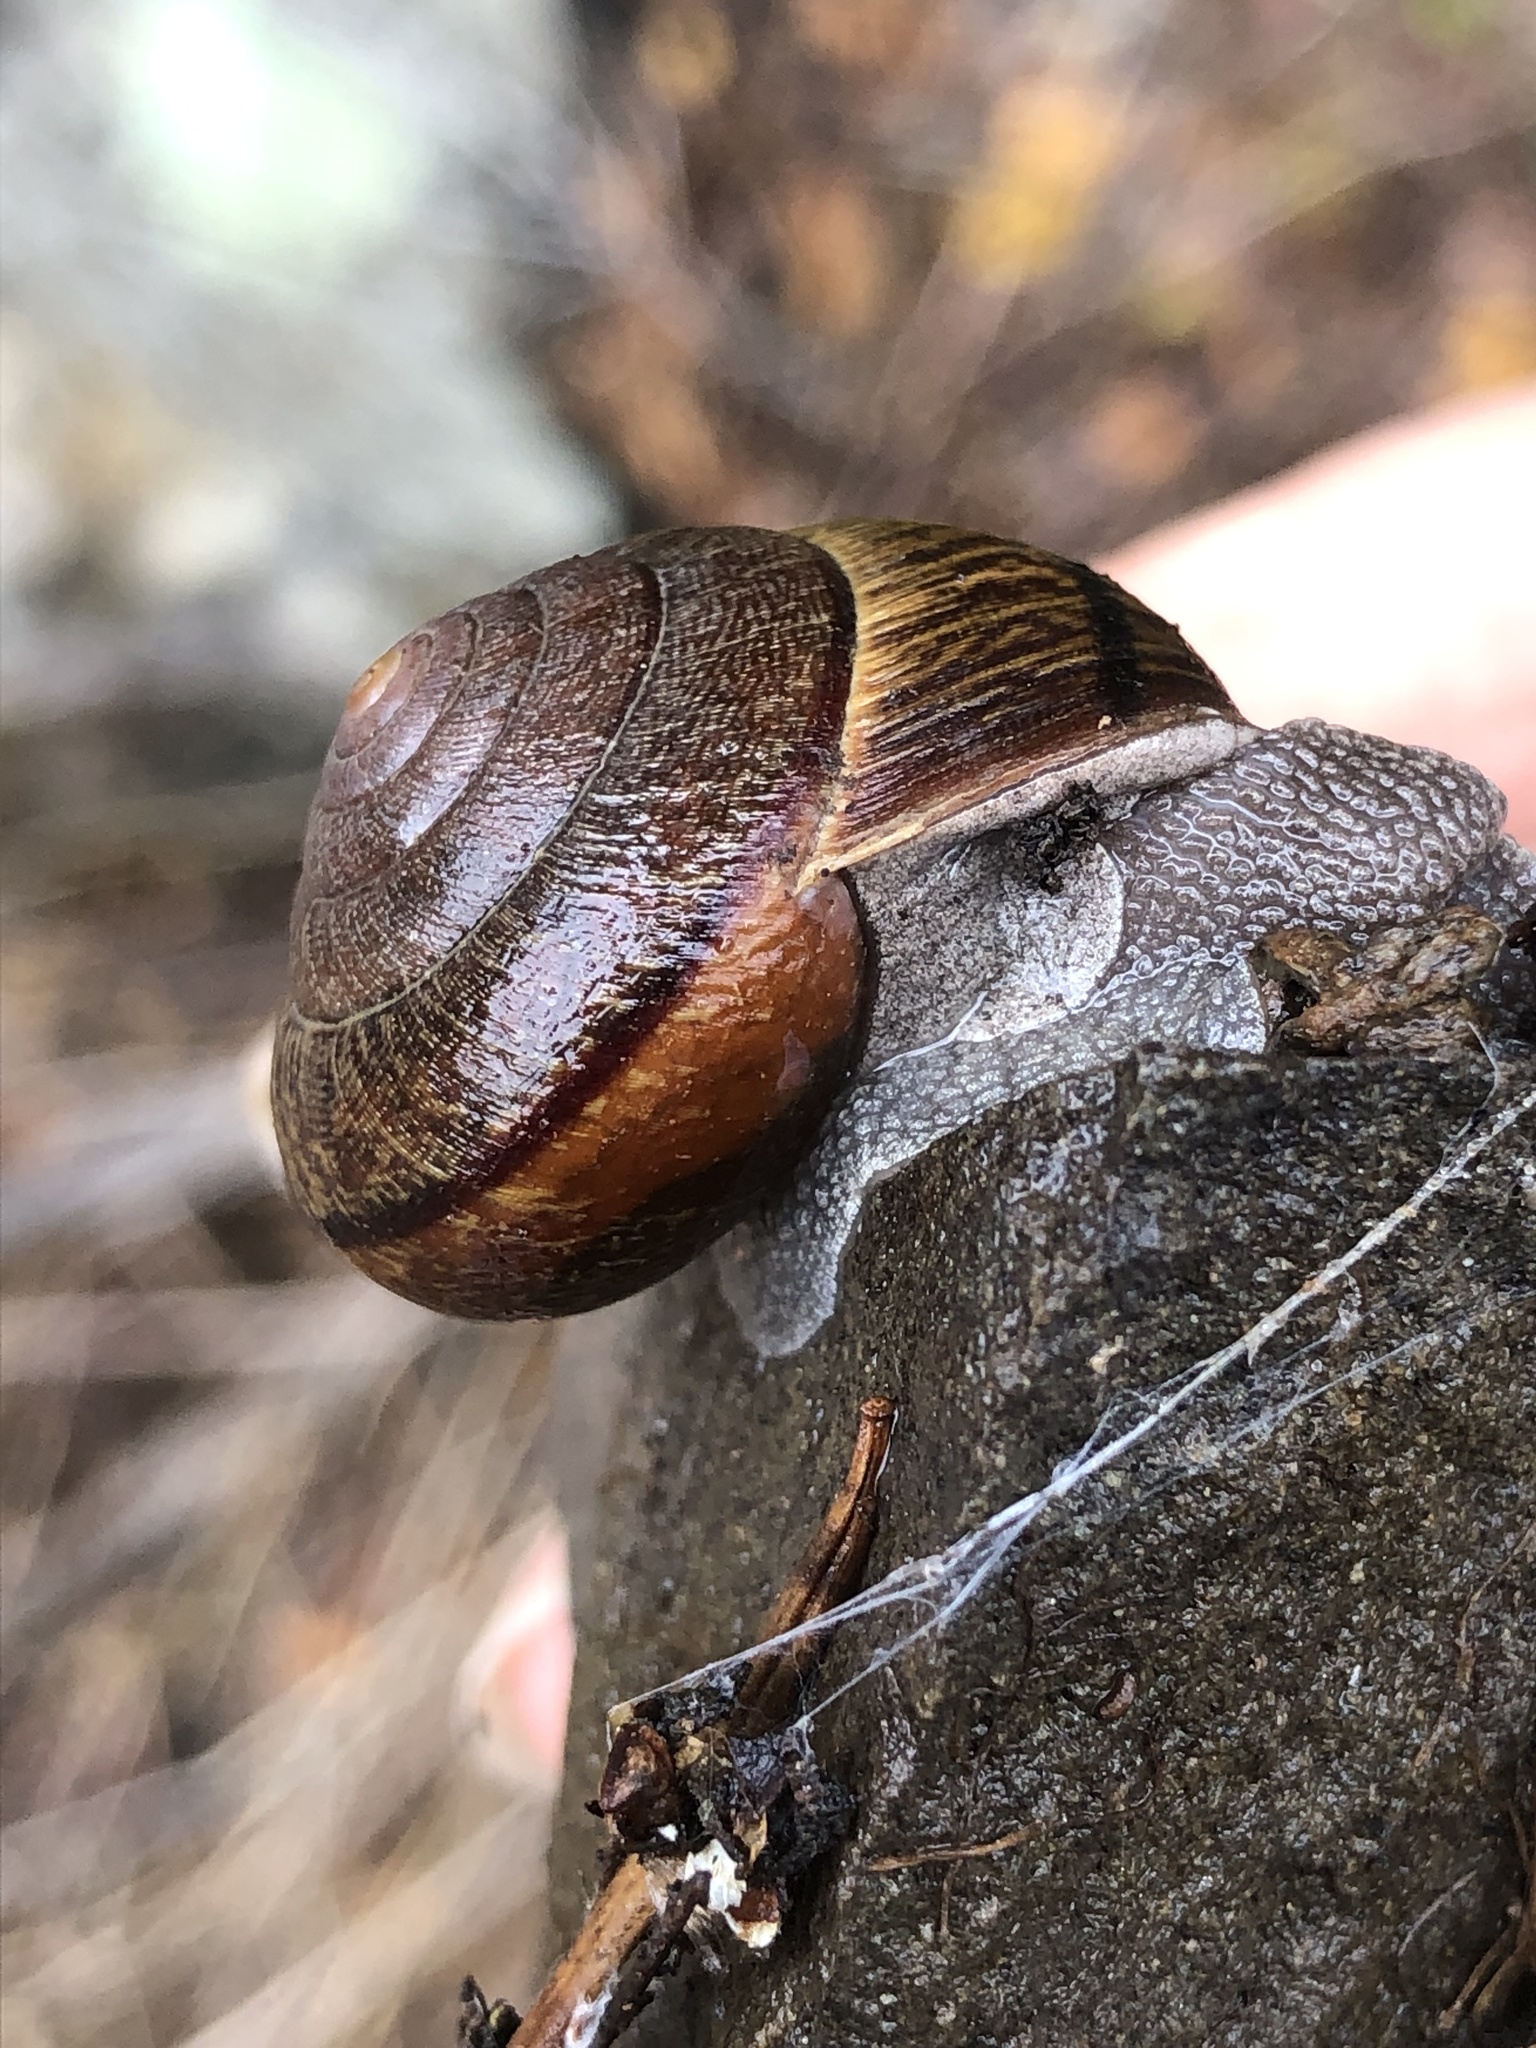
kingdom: Animalia
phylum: Mollusca
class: Gastropoda
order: Stylommatophora
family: Xanthonychidae
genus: Helminthoglypta
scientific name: Helminthoglypta arrosa
